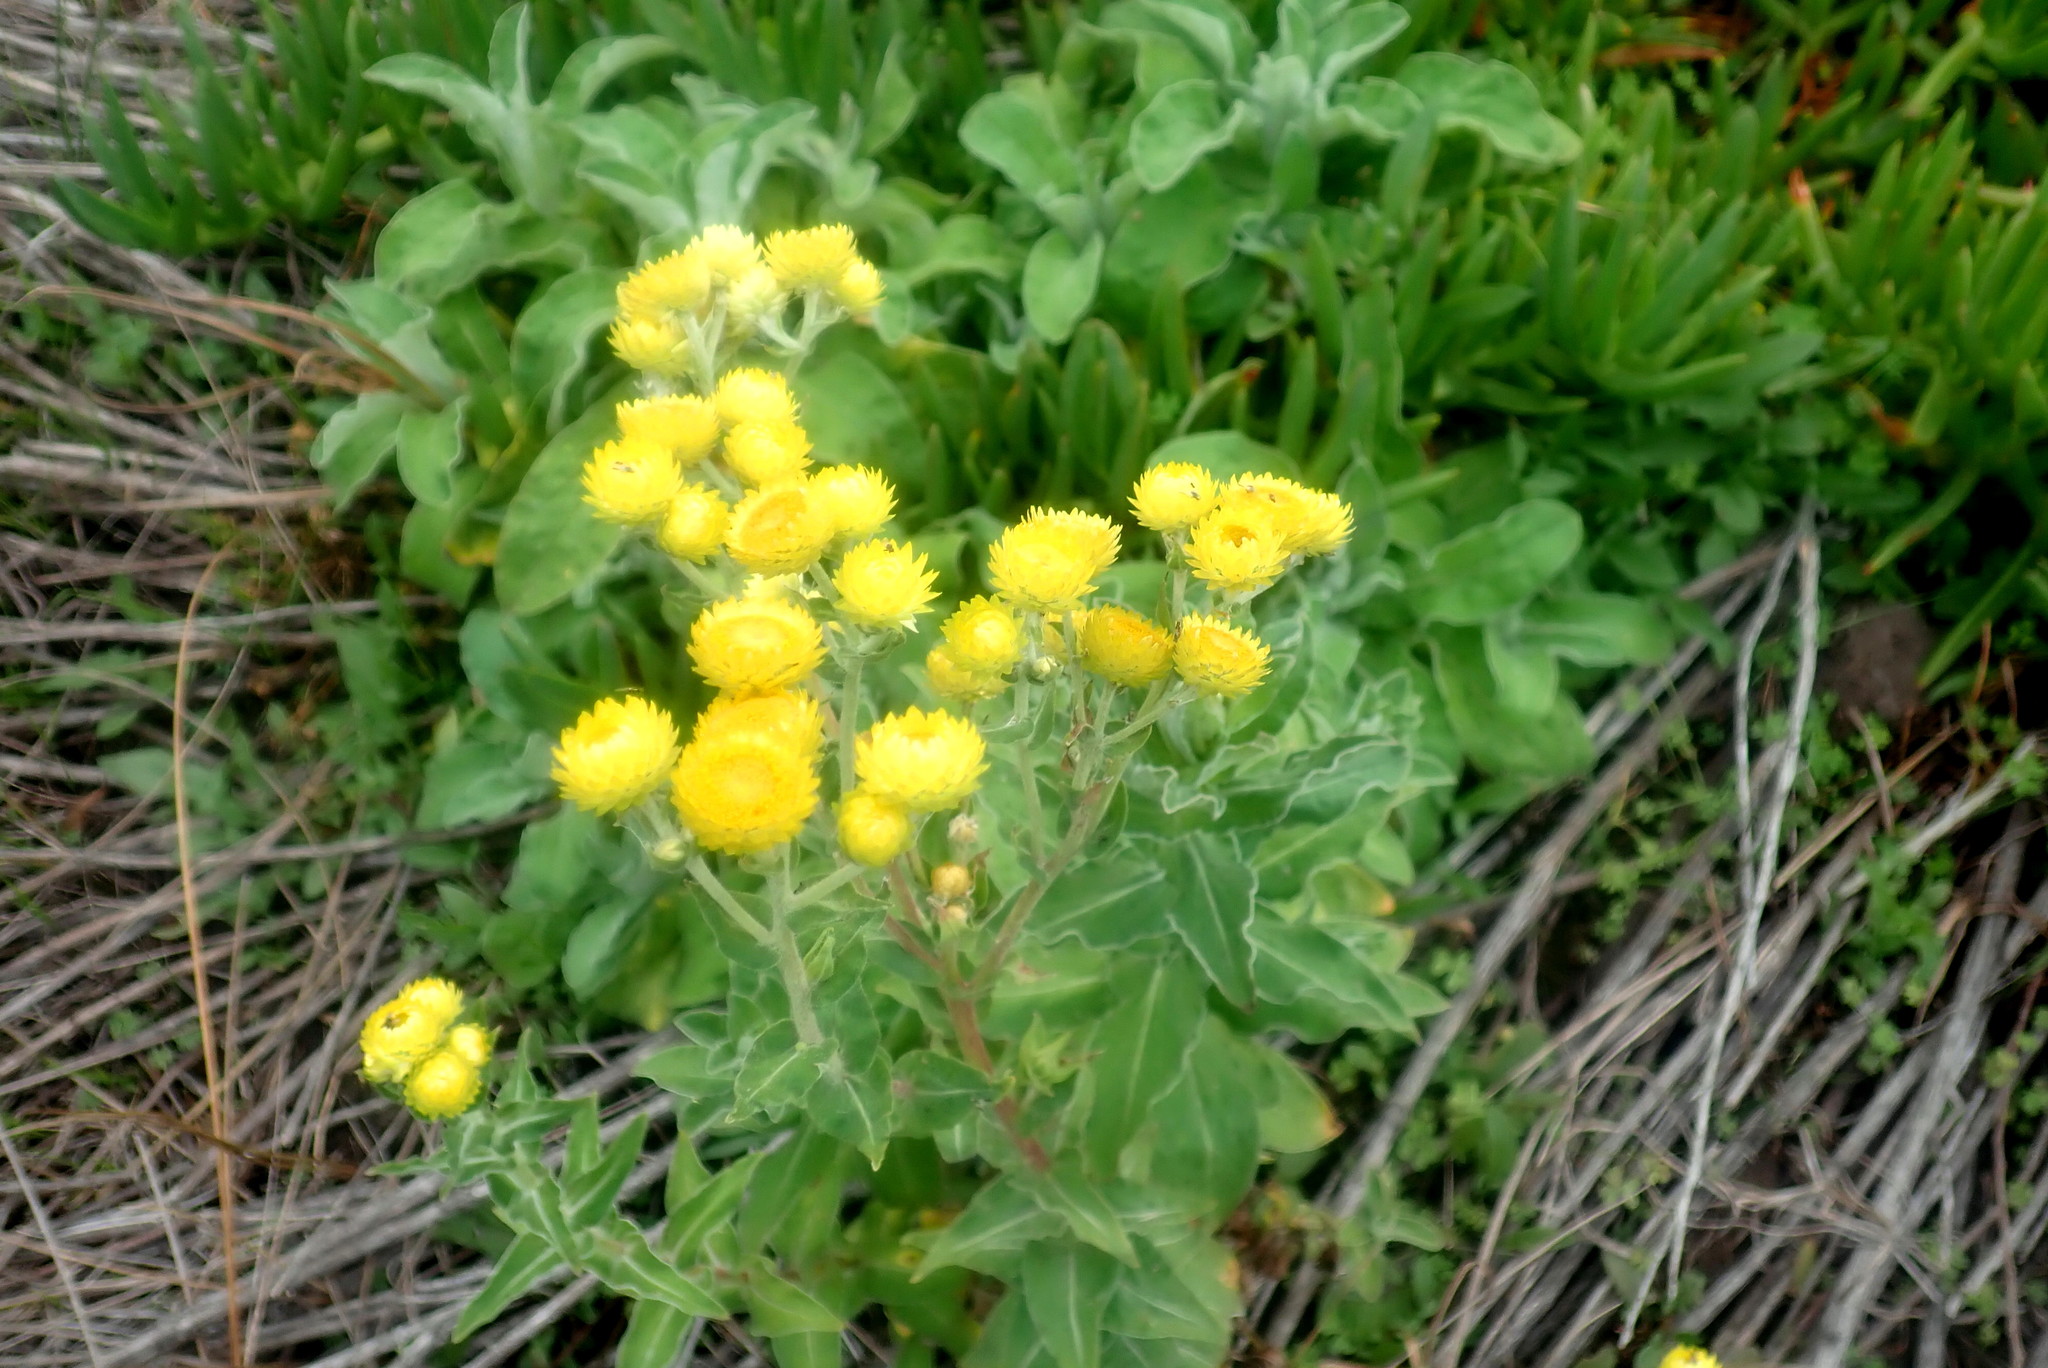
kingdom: Plantae
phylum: Tracheophyta
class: Magnoliopsida
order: Asterales
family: Asteraceae
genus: Helichrysum
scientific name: Helichrysum foetidum
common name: Stinking everlasting
